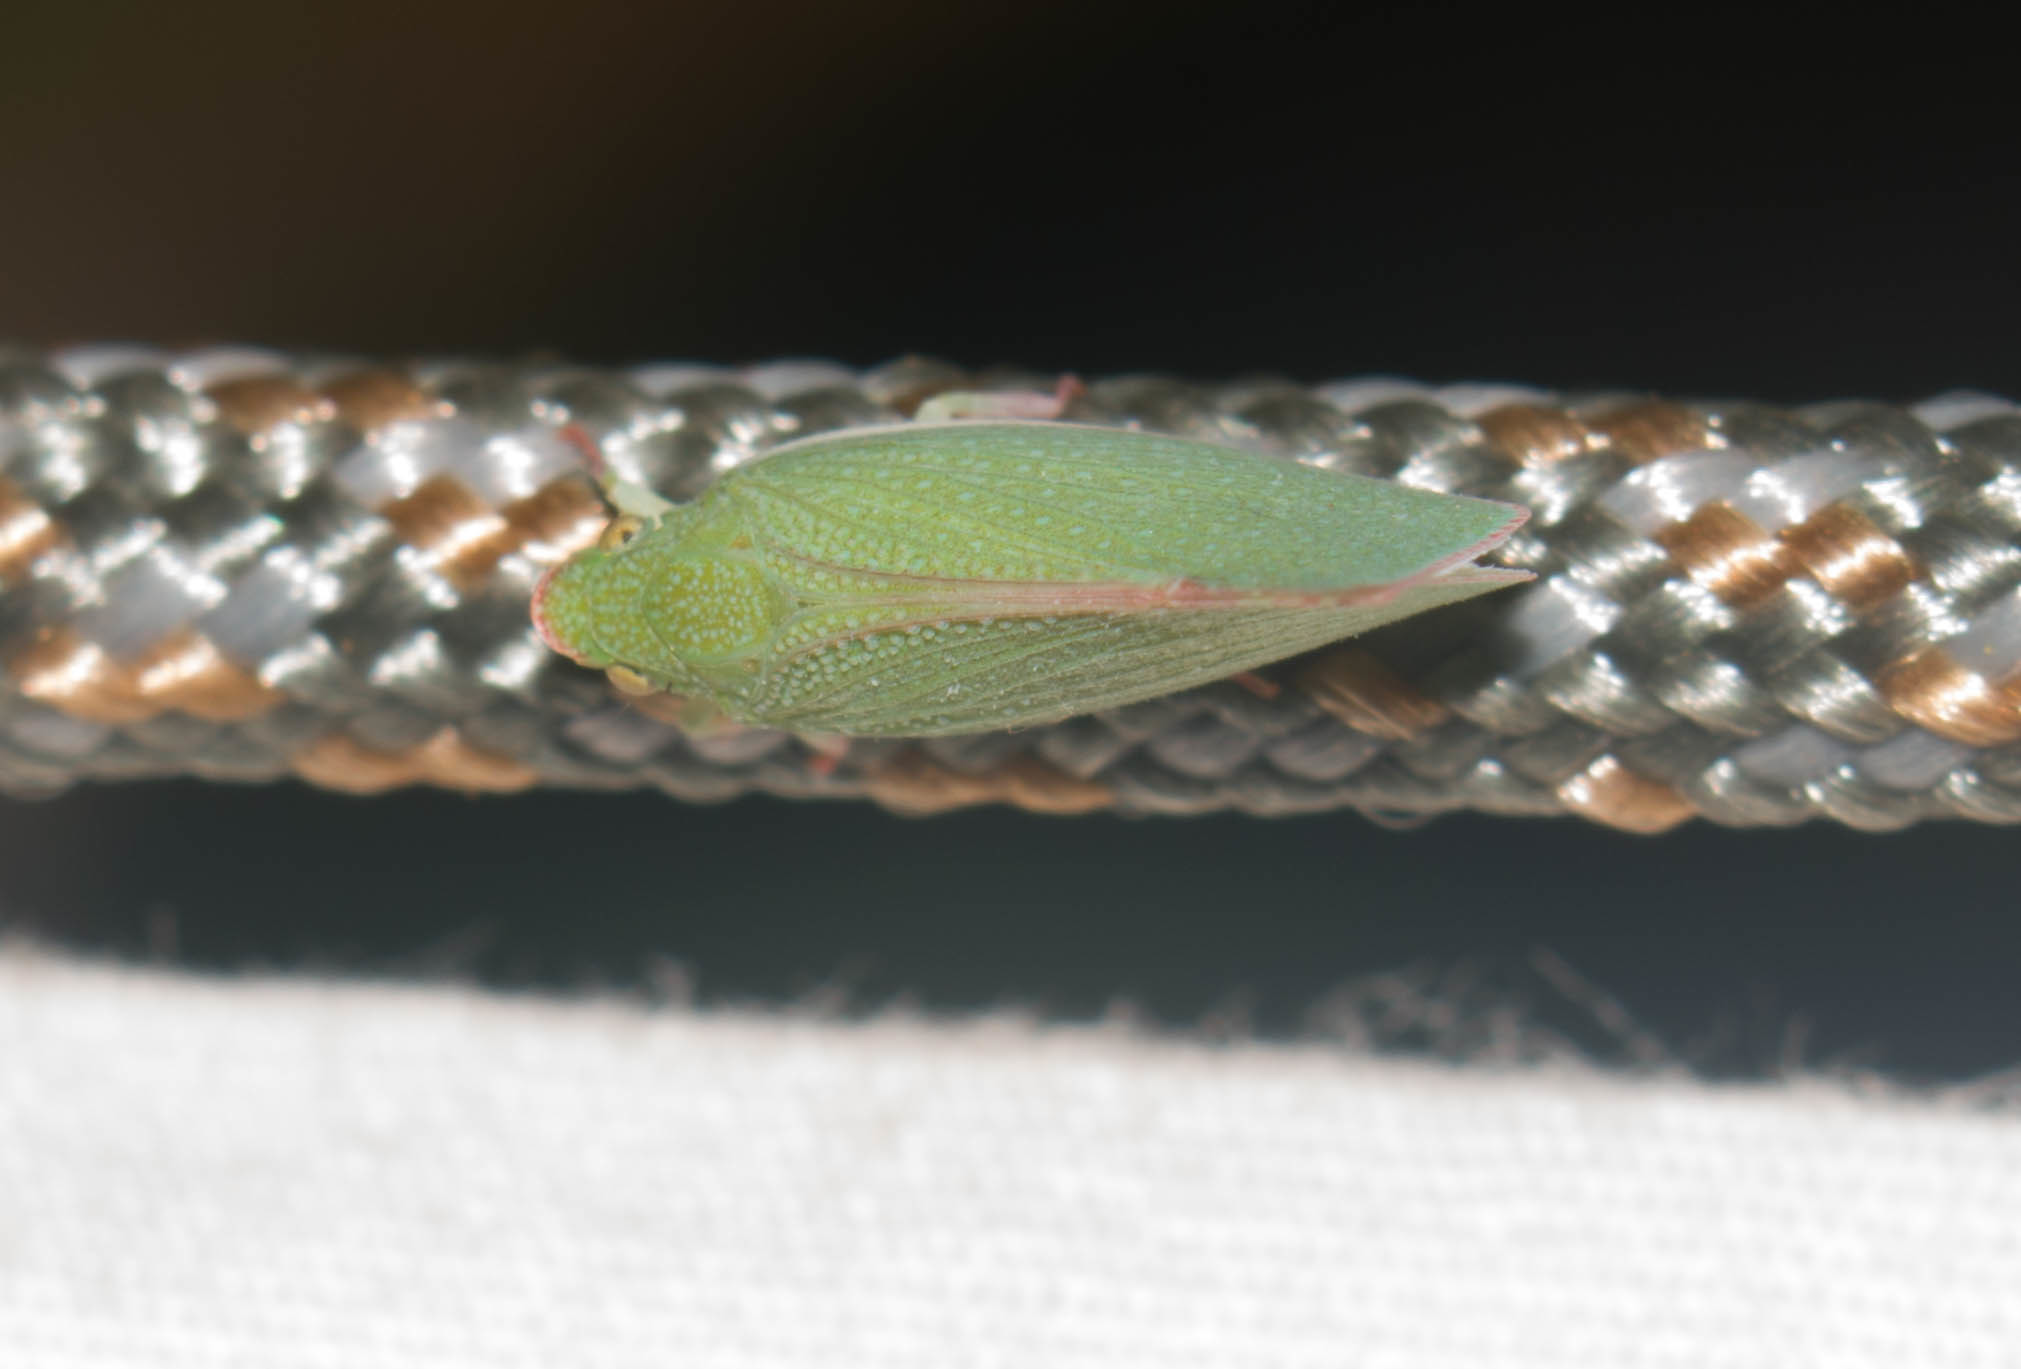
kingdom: Animalia
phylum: Arthropoda
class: Insecta
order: Hemiptera
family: Flatidae
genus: Siphanta
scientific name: Siphanta acuta
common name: Torpedo bug
